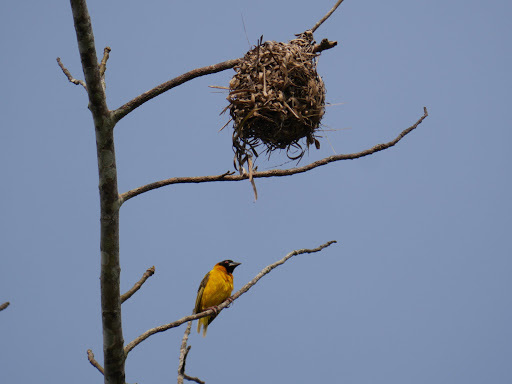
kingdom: Animalia
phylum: Chordata
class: Aves
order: Passeriformes
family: Ploceidae
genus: Ploceus
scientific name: Ploceus cucullatus
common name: Village weaver
